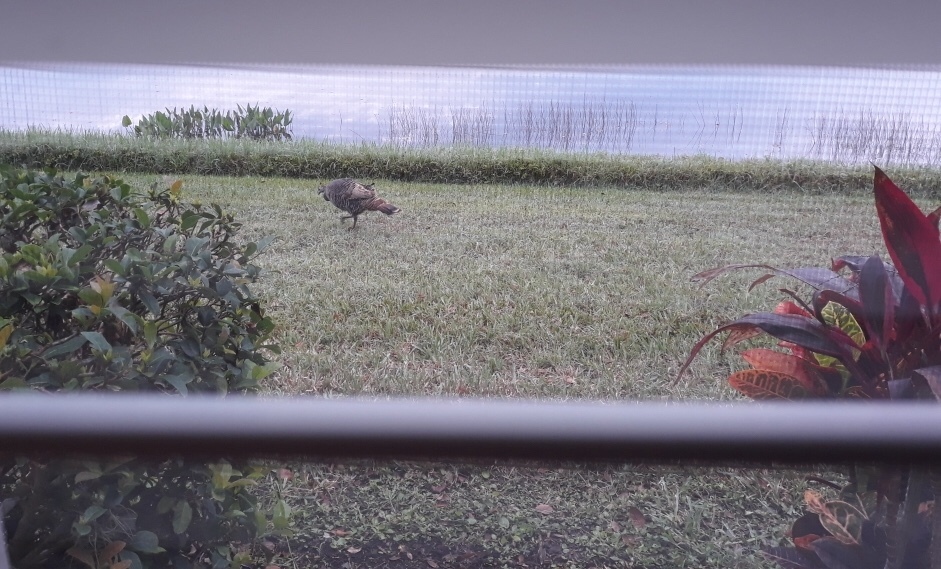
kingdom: Animalia
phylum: Chordata
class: Aves
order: Galliformes
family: Phasianidae
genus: Meleagris
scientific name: Meleagris gallopavo
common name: Wild turkey
